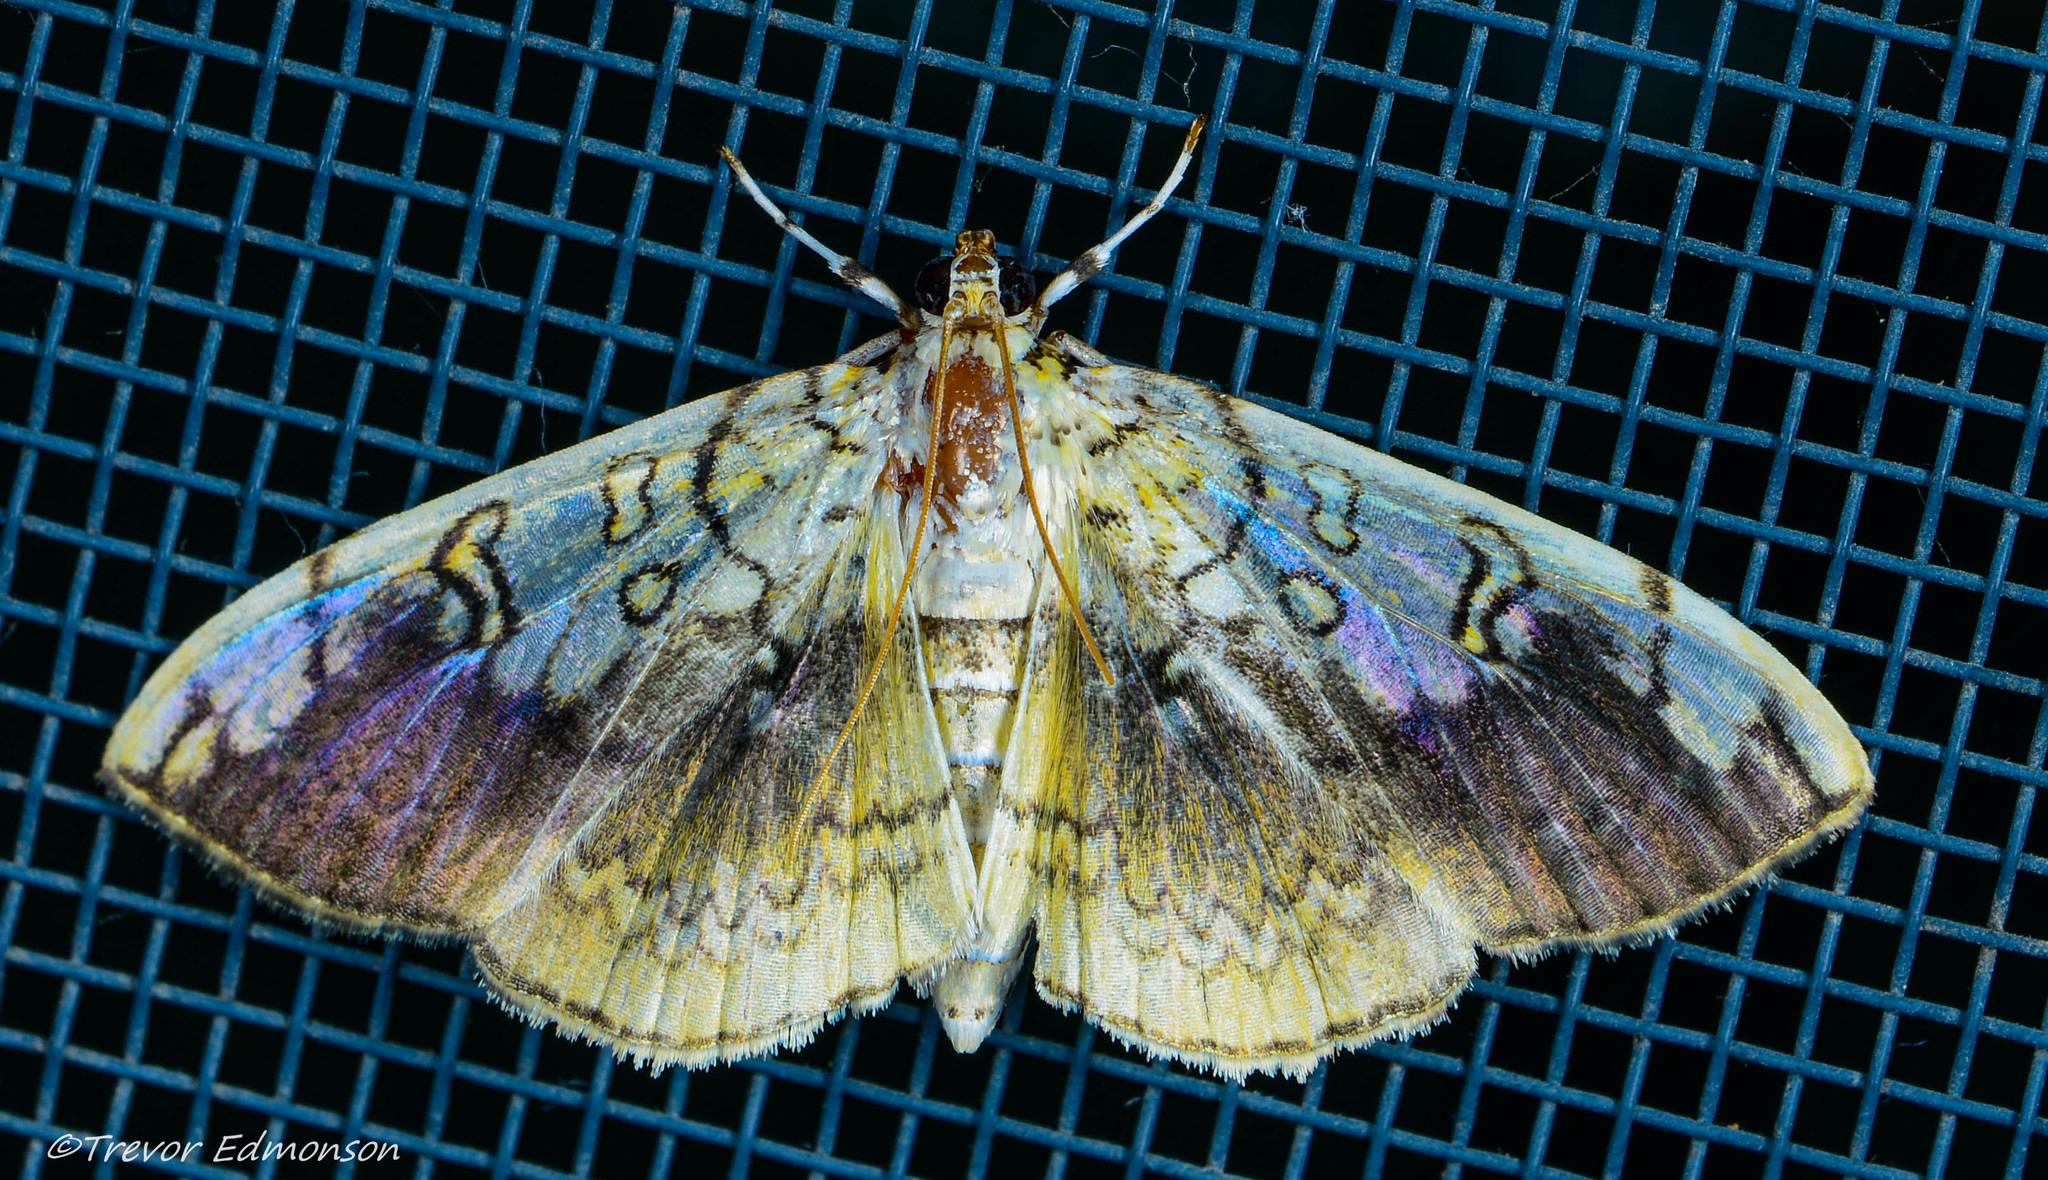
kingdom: Animalia
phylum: Arthropoda
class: Insecta
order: Lepidoptera
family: Crambidae
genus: Pantographa
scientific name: Pantographa limata
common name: Basswood leafroller moth
